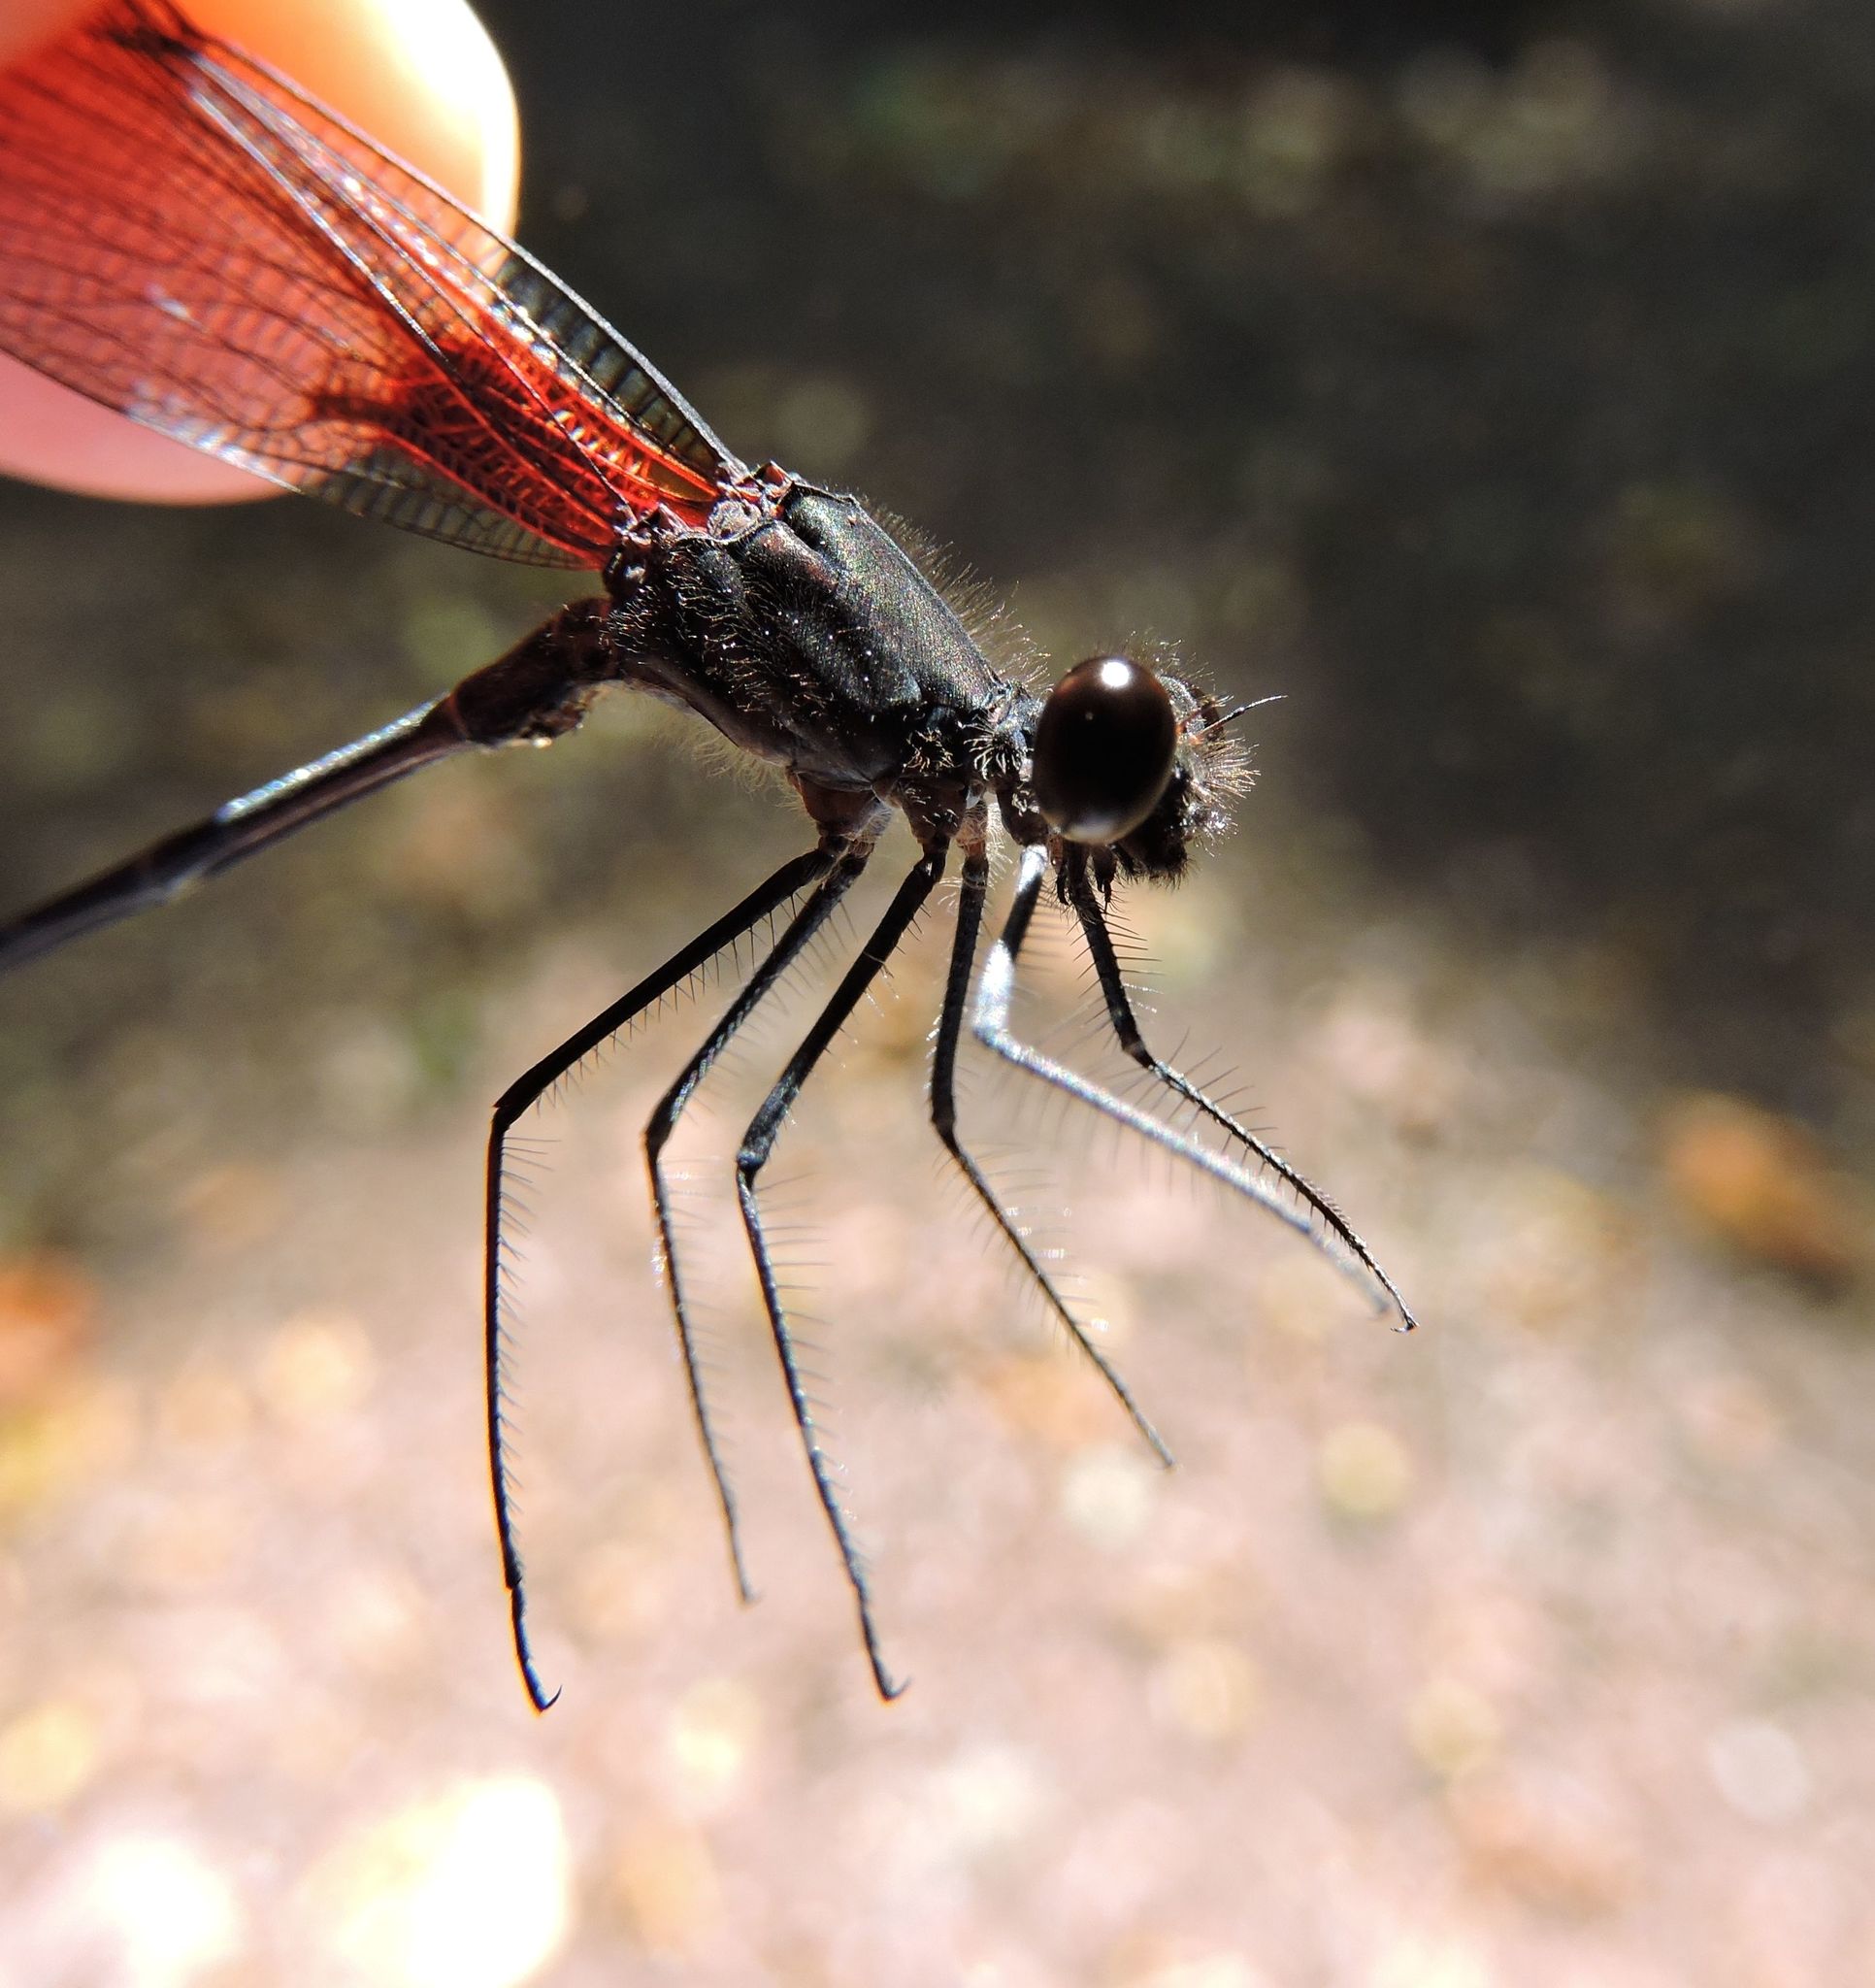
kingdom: Animalia
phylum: Arthropoda
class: Insecta
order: Odonata
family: Calopterygidae
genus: Hetaerina
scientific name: Hetaerina titia
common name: Smoky rubyspot
